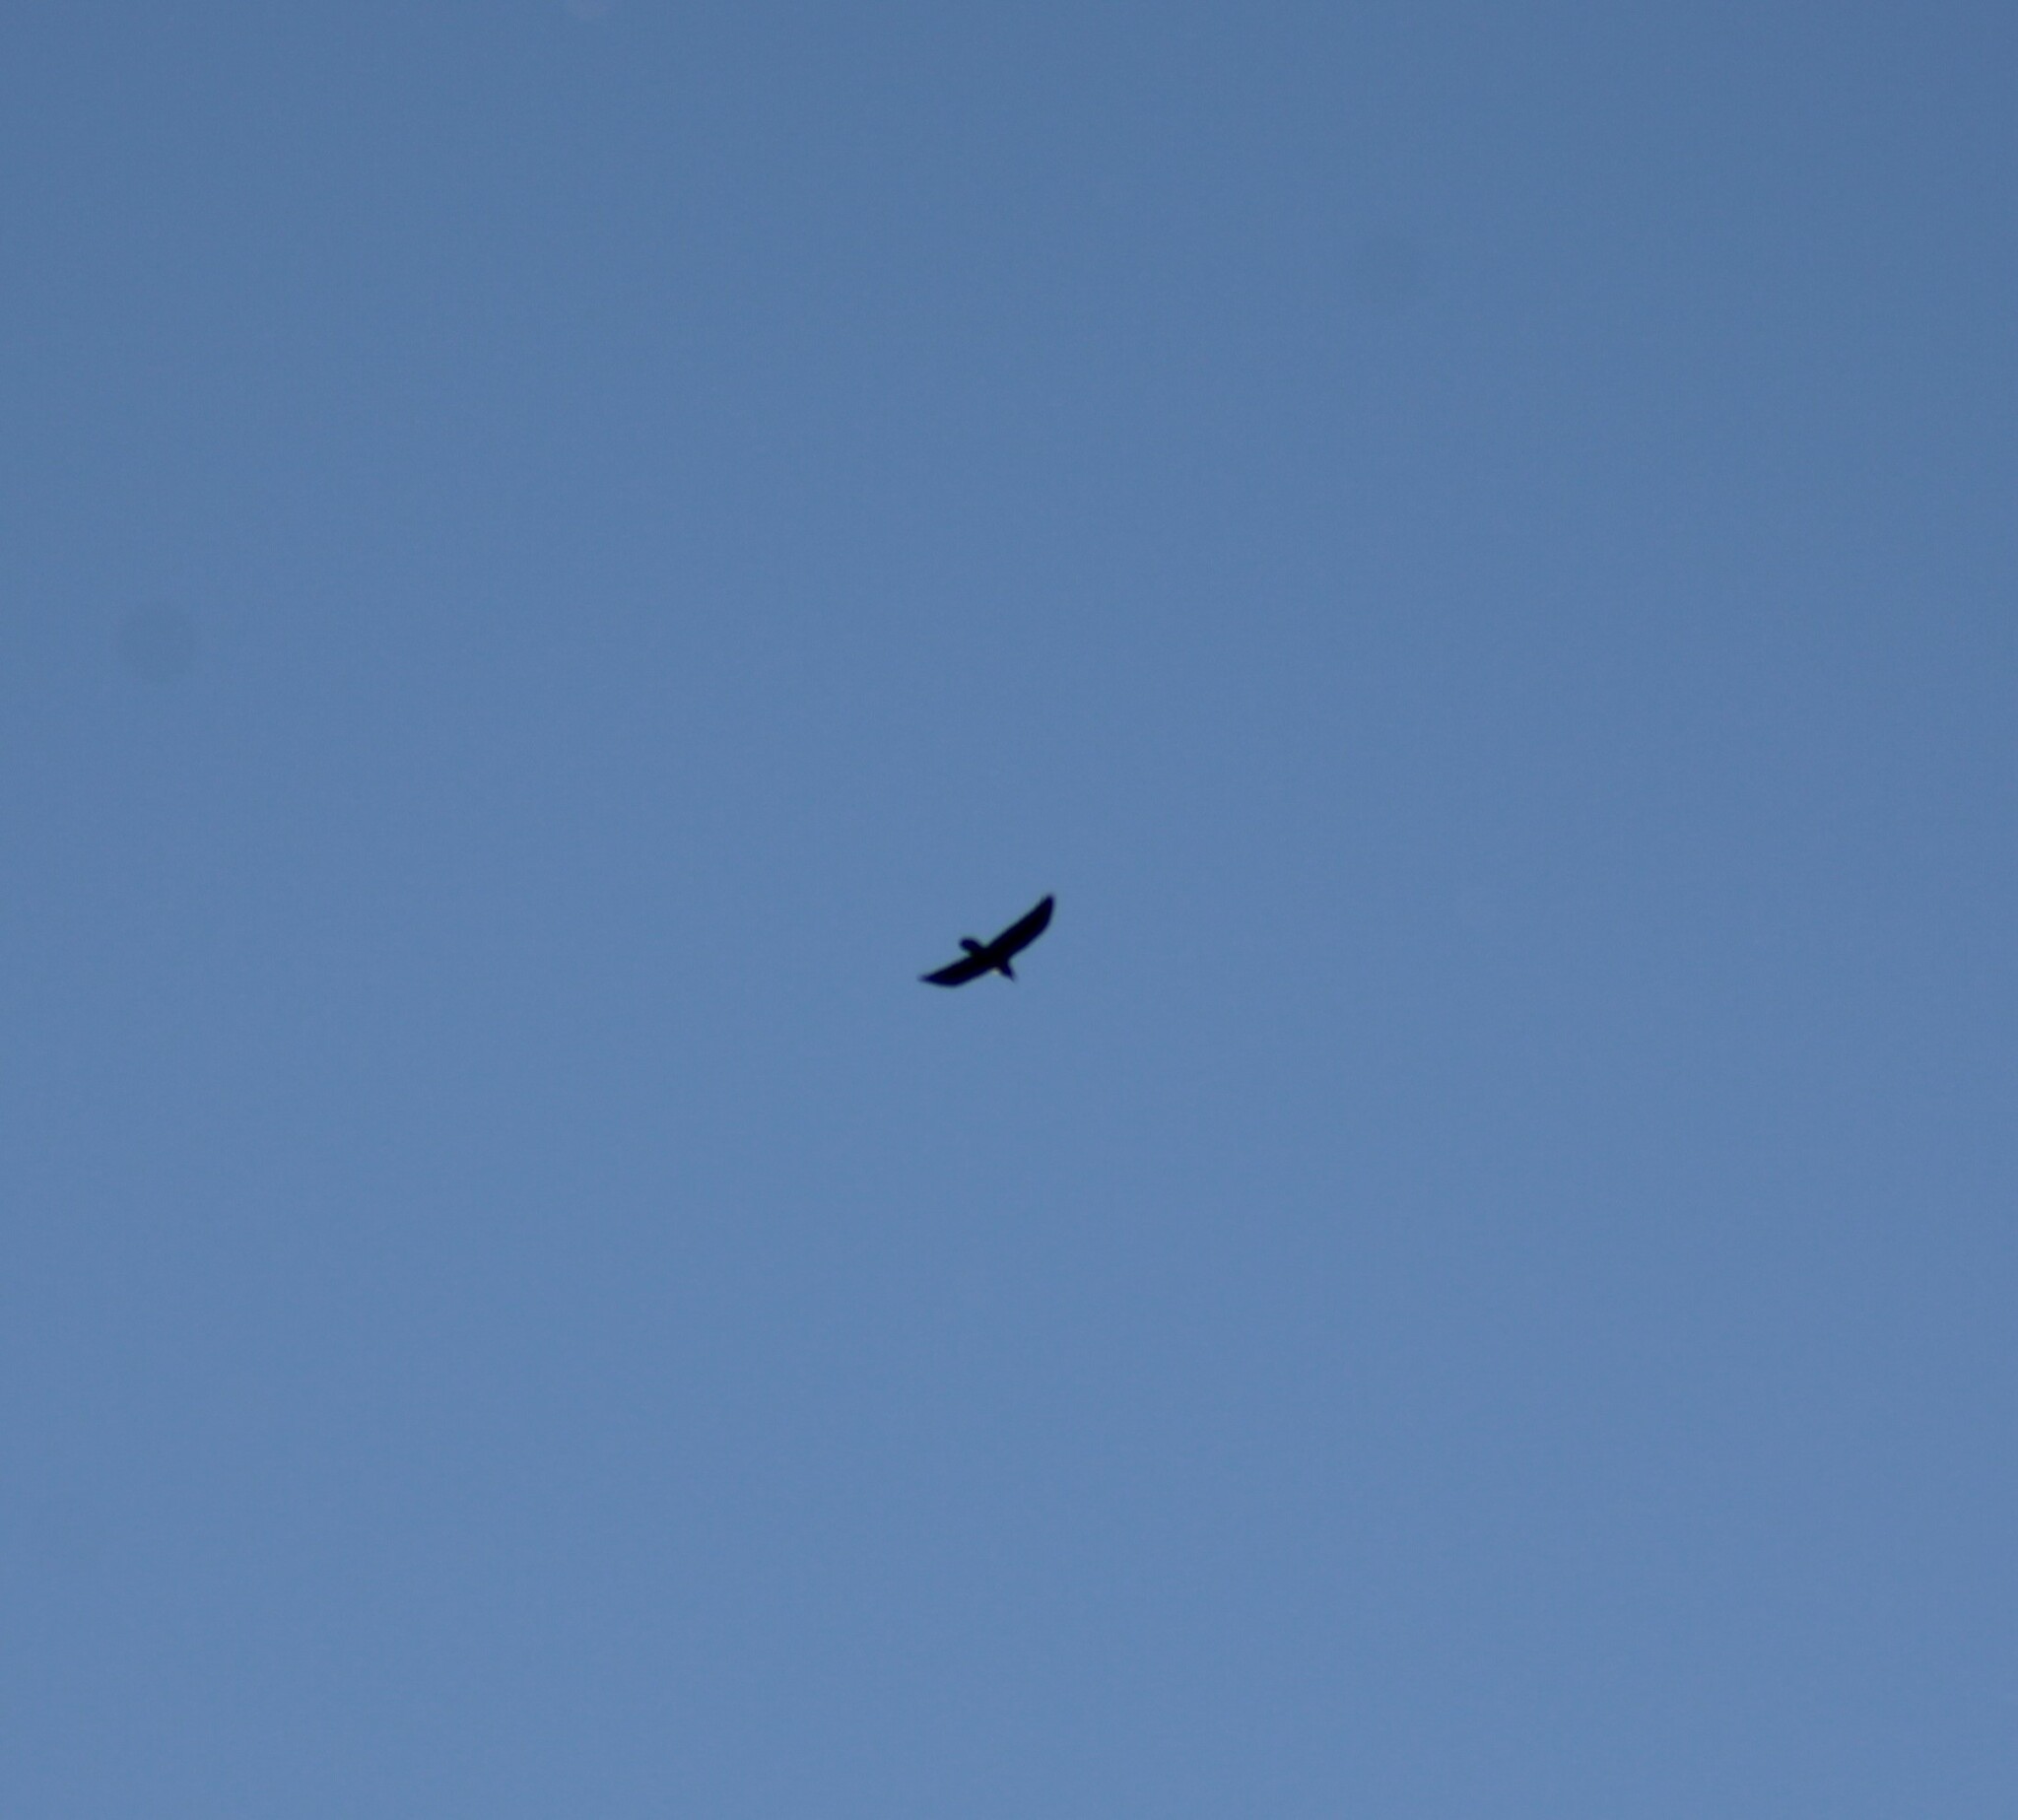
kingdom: Animalia
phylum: Chordata
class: Aves
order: Passeriformes
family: Corvidae
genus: Corvus
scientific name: Corvus corax
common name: Common raven
